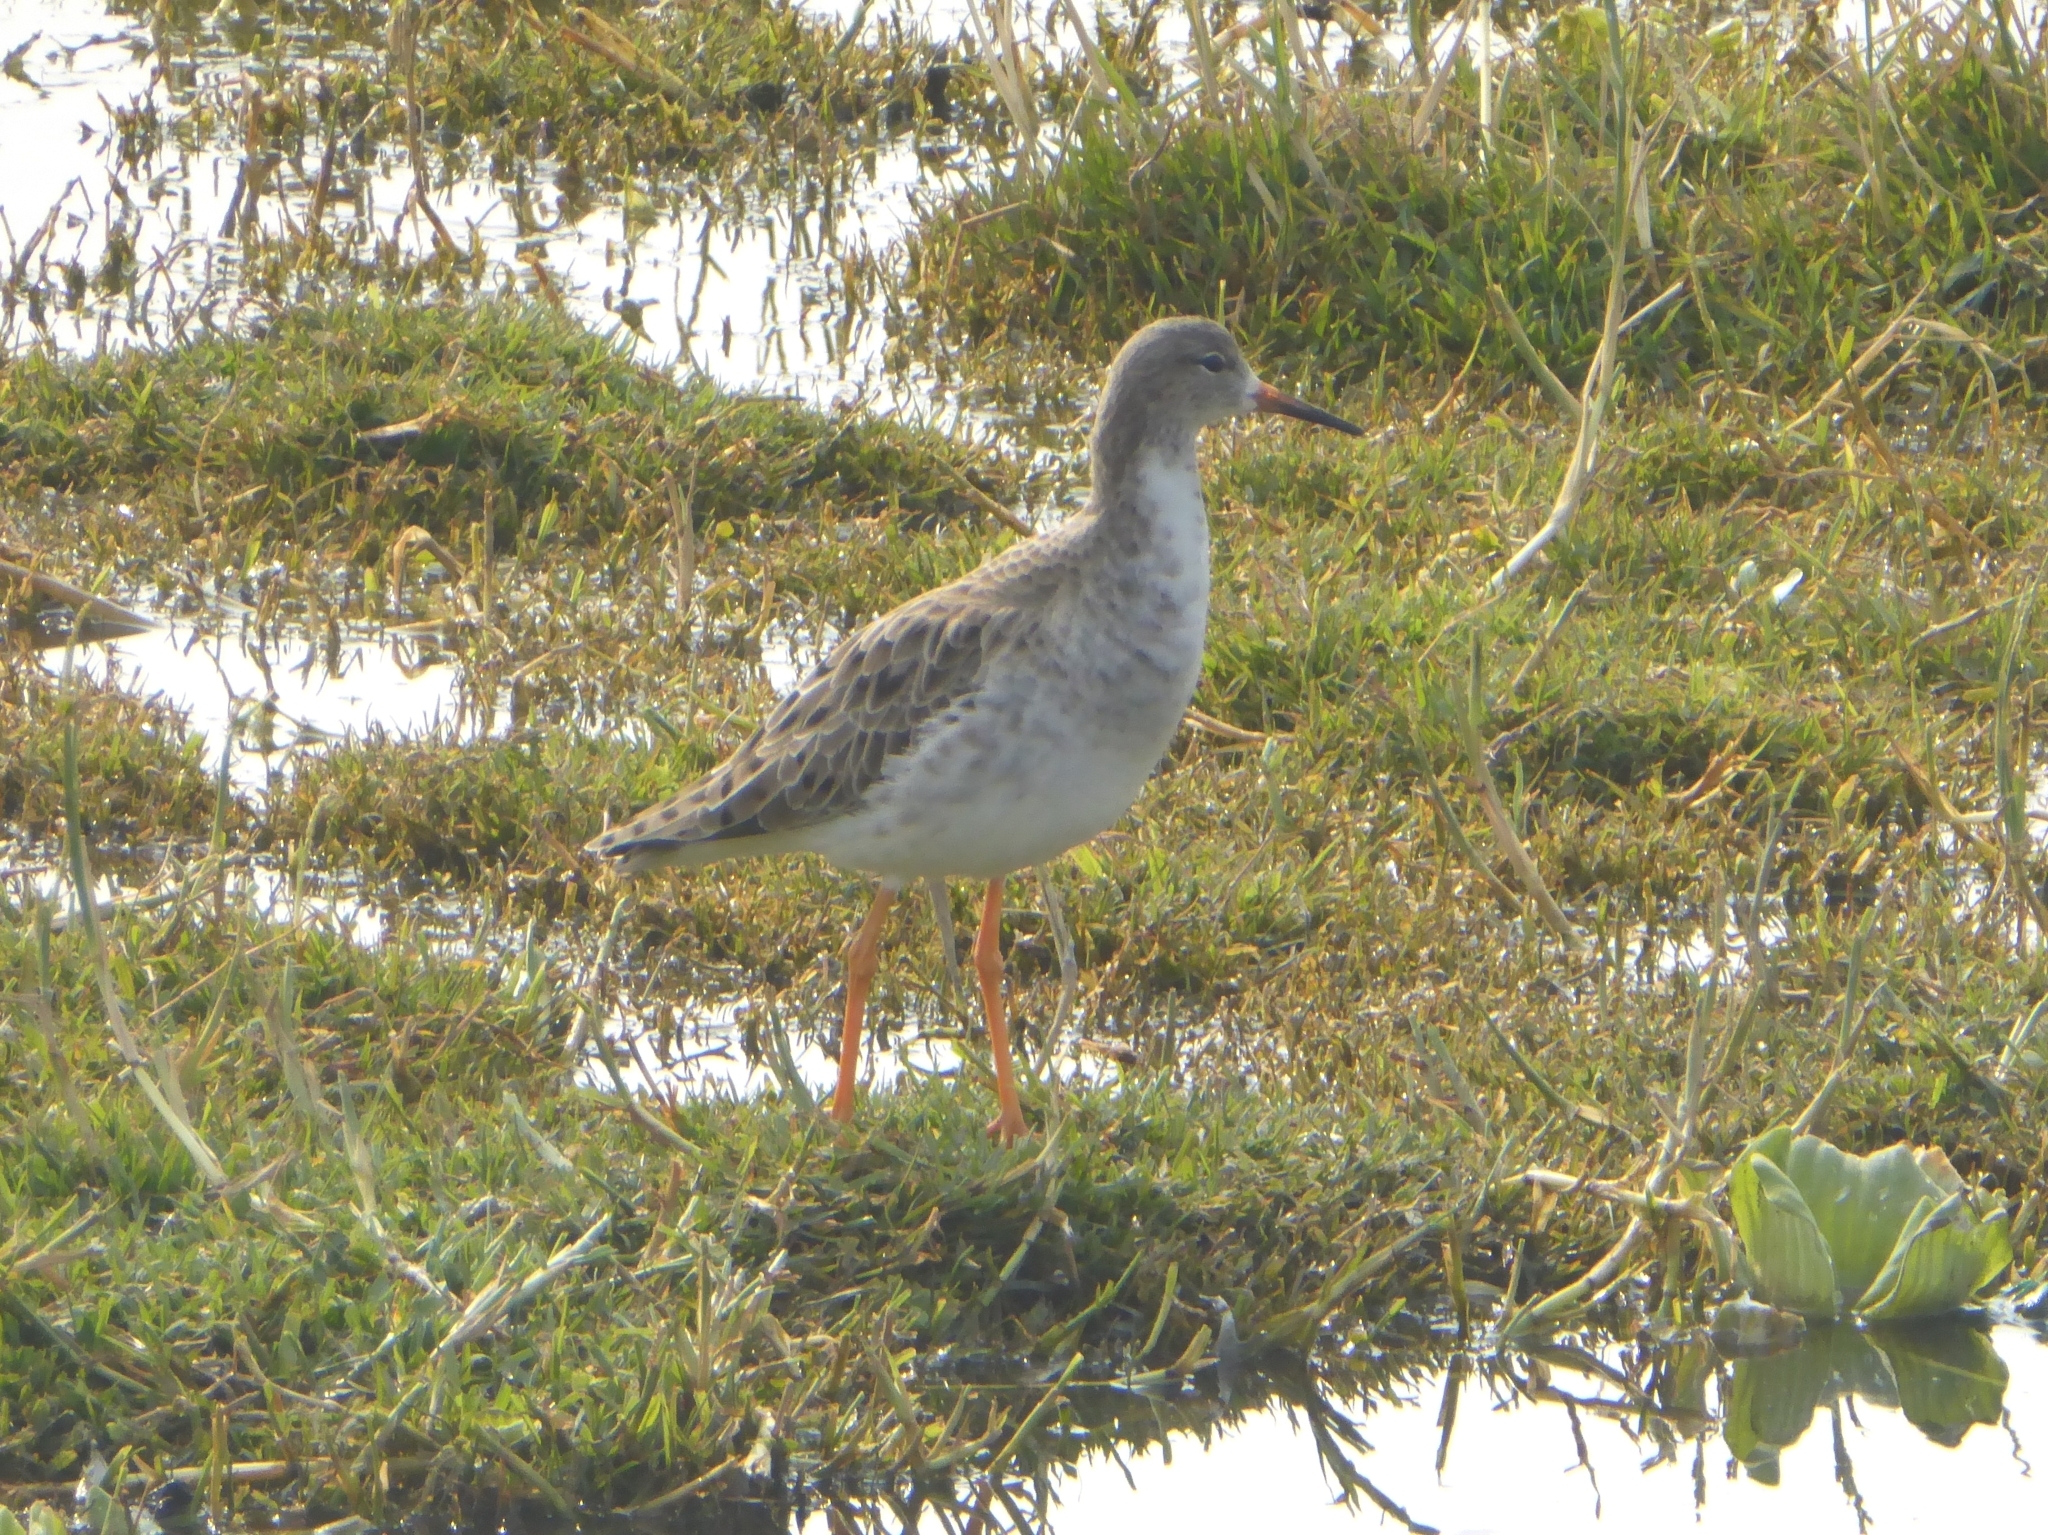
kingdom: Animalia
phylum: Chordata
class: Aves
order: Charadriiformes
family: Scolopacidae
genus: Calidris
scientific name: Calidris pugnax
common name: Ruff
